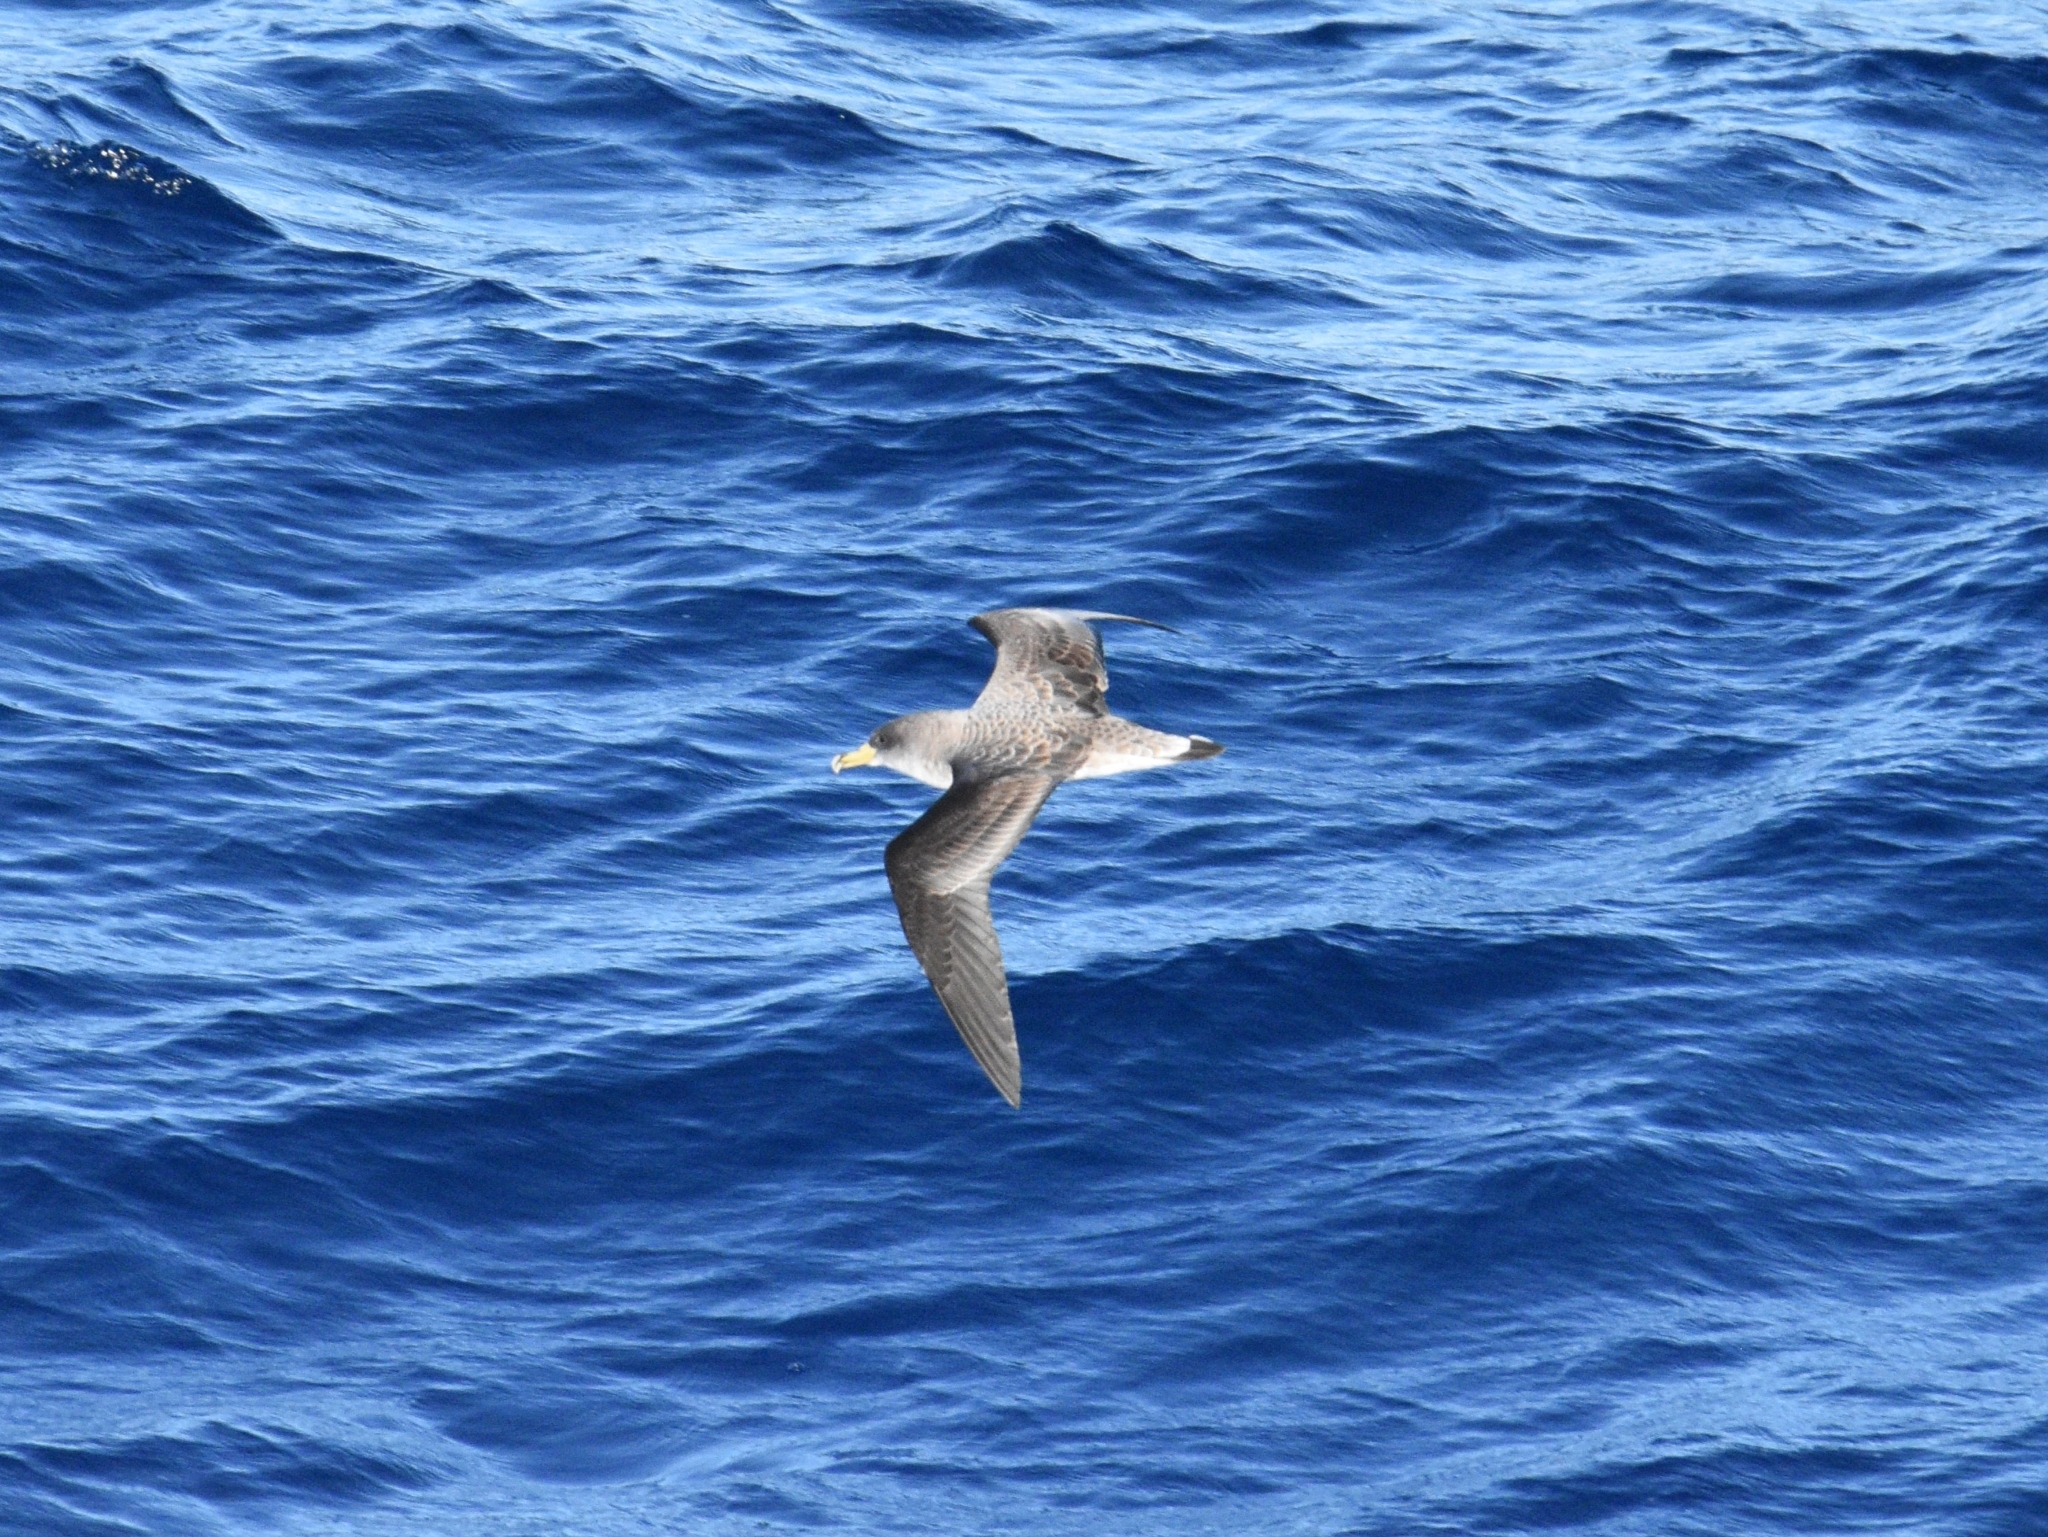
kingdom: Animalia
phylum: Chordata
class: Aves
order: Procellariiformes
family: Procellariidae
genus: Calonectris
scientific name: Calonectris diomedea
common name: Cory's shearwater
